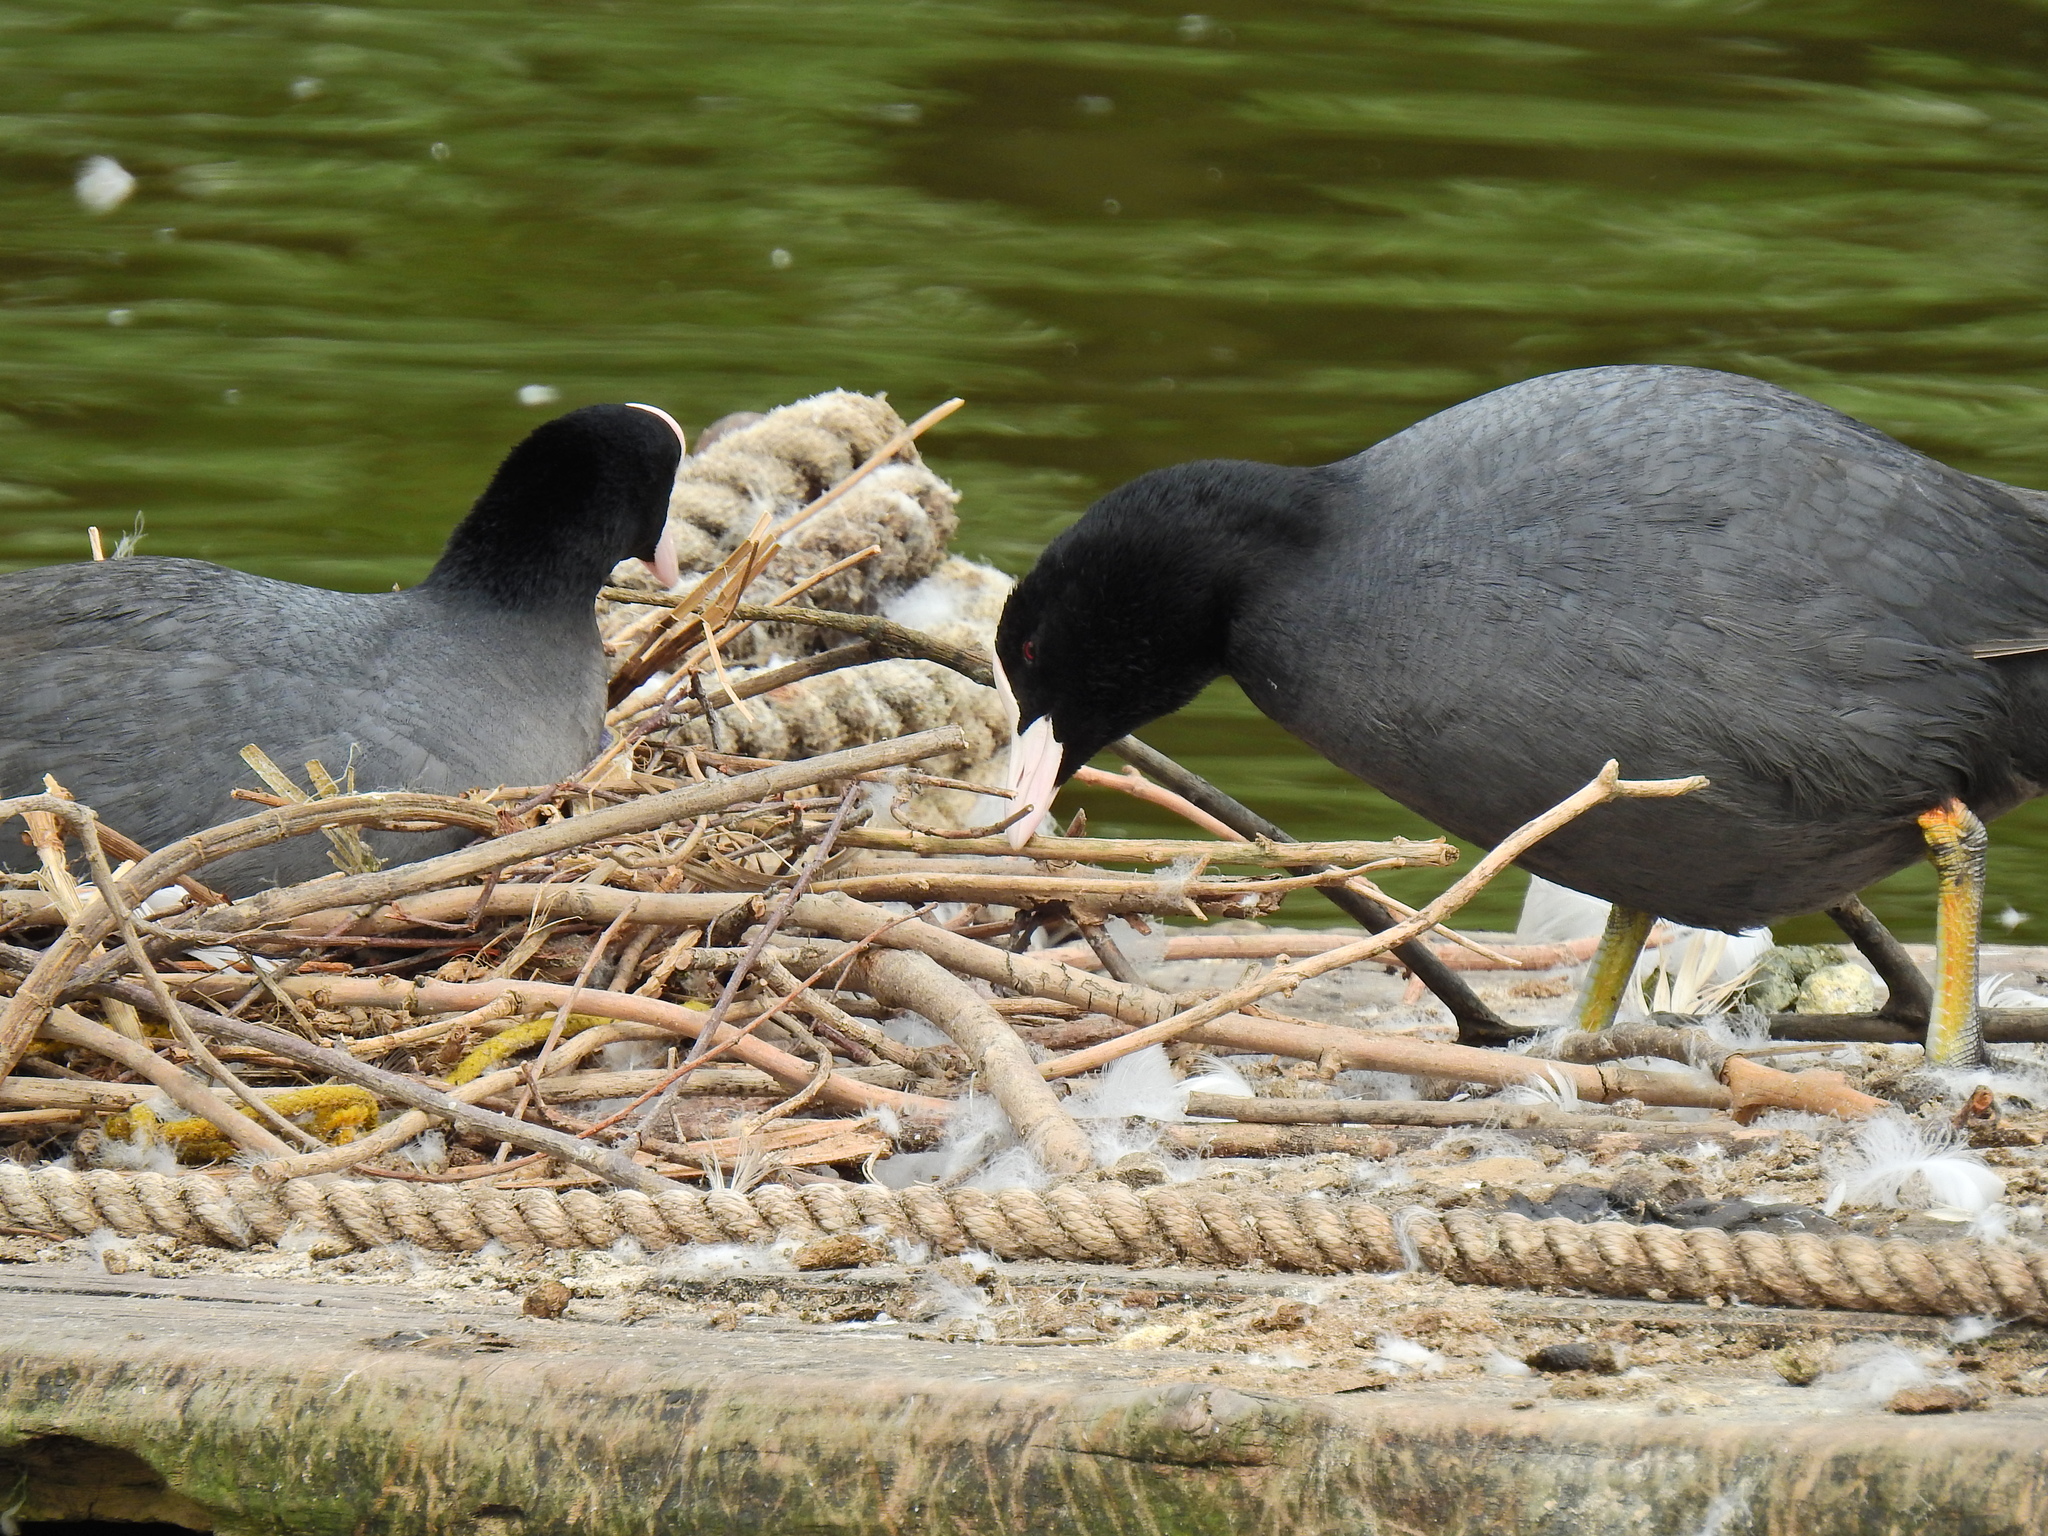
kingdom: Animalia
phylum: Chordata
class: Aves
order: Gruiformes
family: Rallidae
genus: Fulica
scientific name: Fulica atra
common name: Eurasian coot
